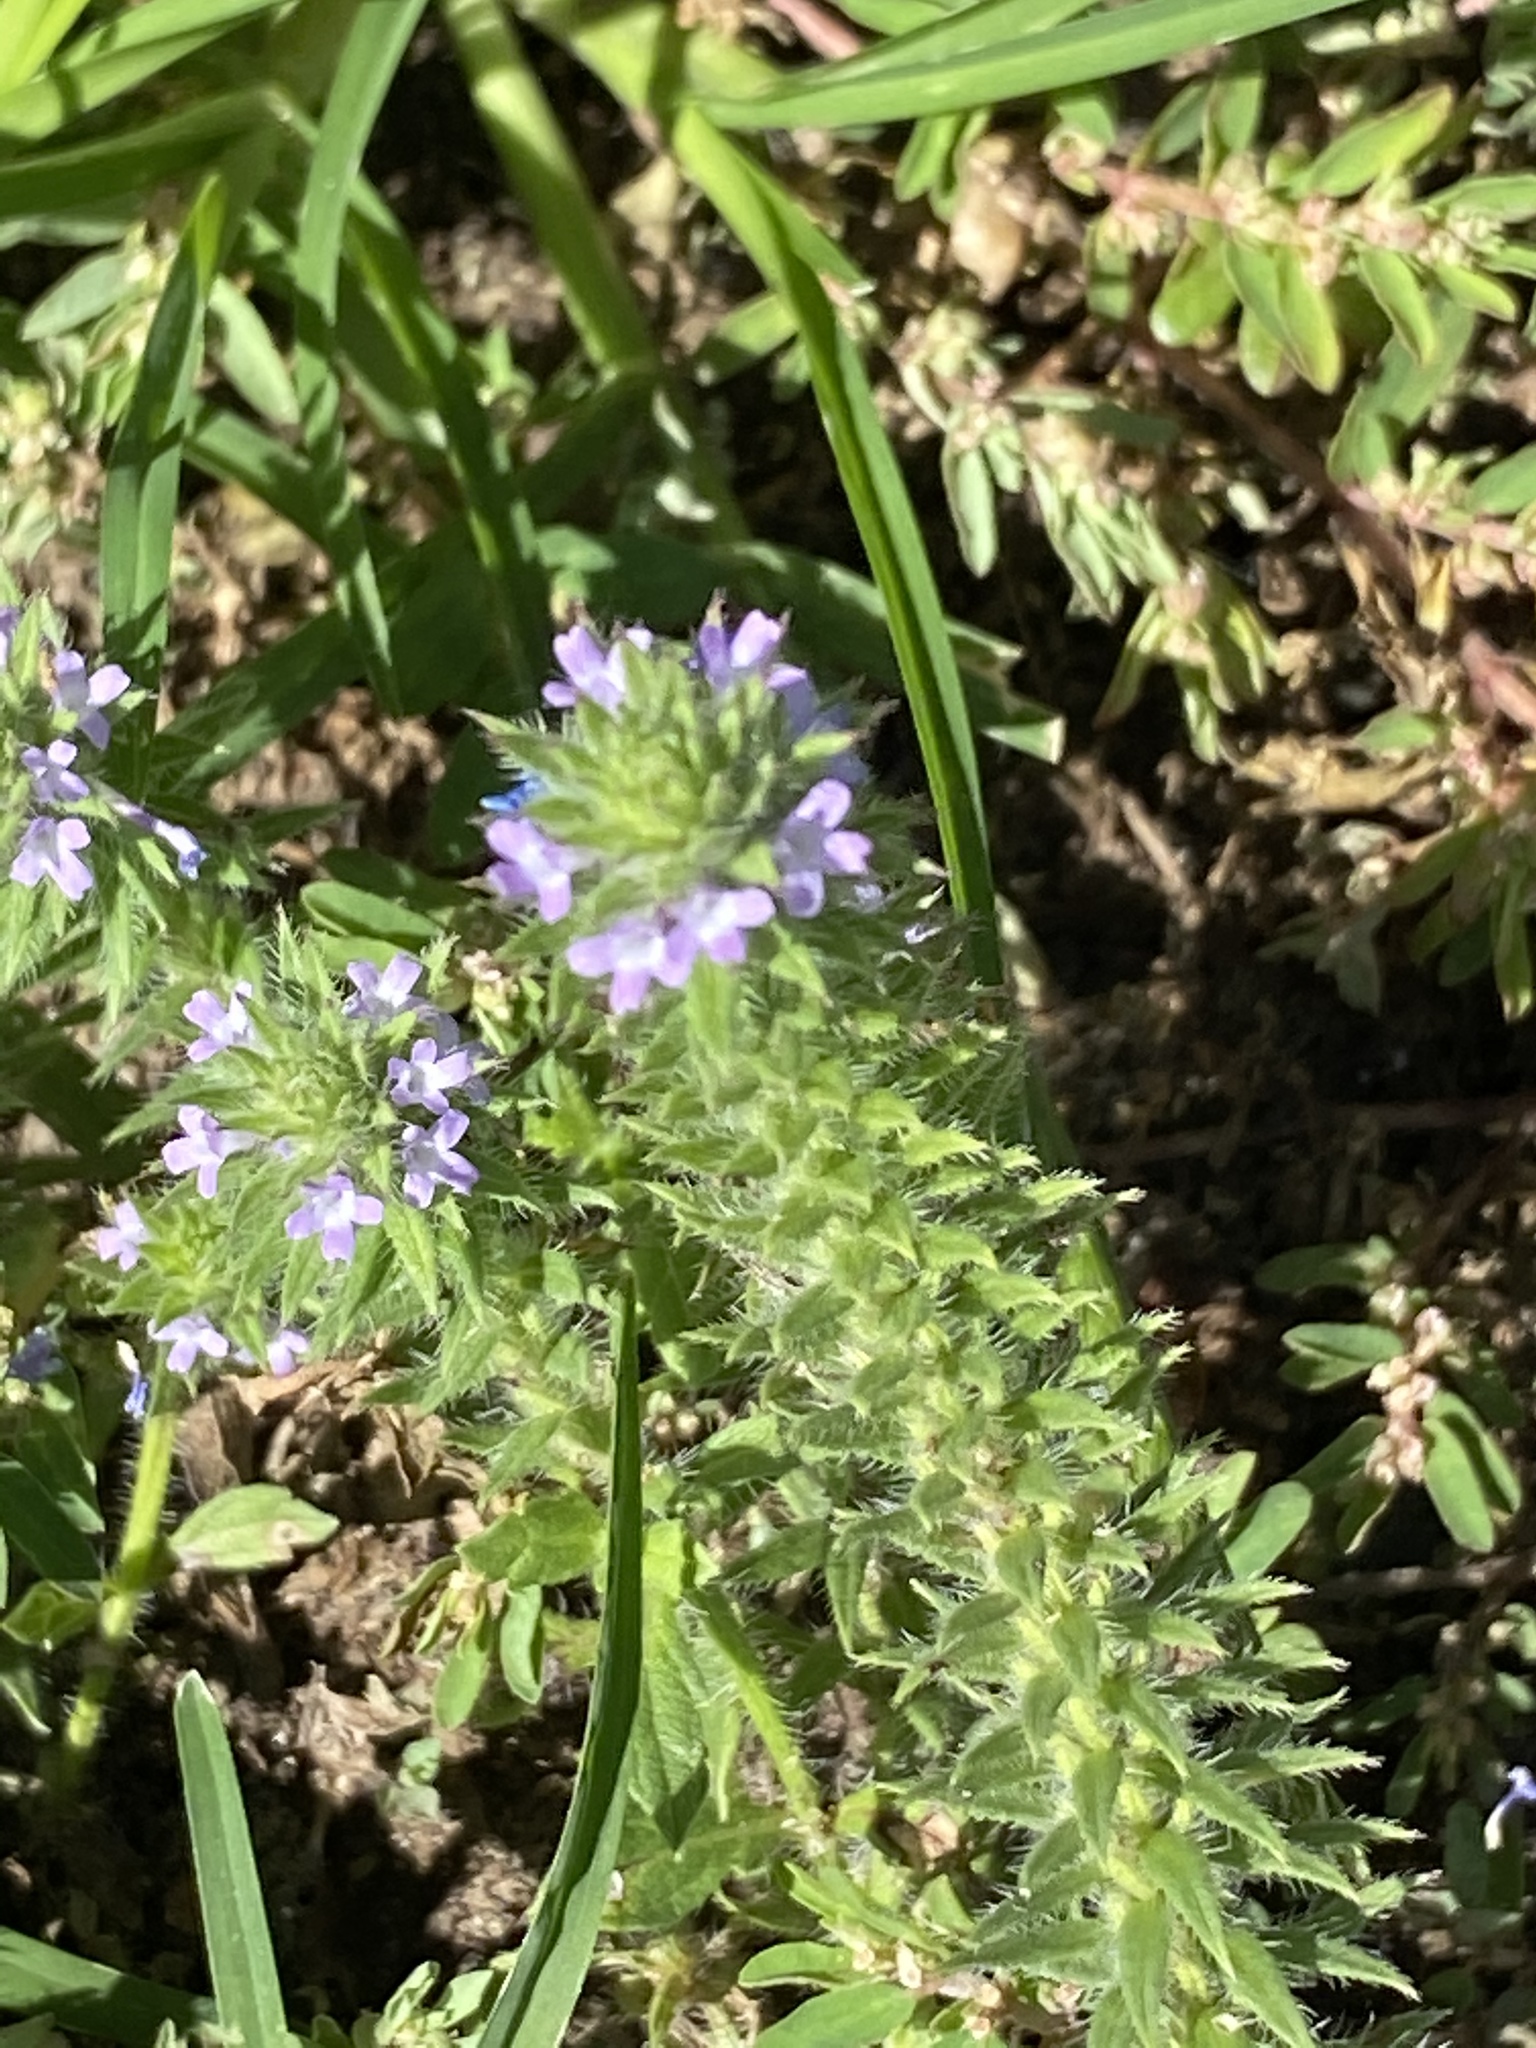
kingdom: Plantae
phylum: Tracheophyta
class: Magnoliopsida
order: Lamiales
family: Verbenaceae
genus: Verbena
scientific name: Verbena bracteata
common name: Bracted vervain
